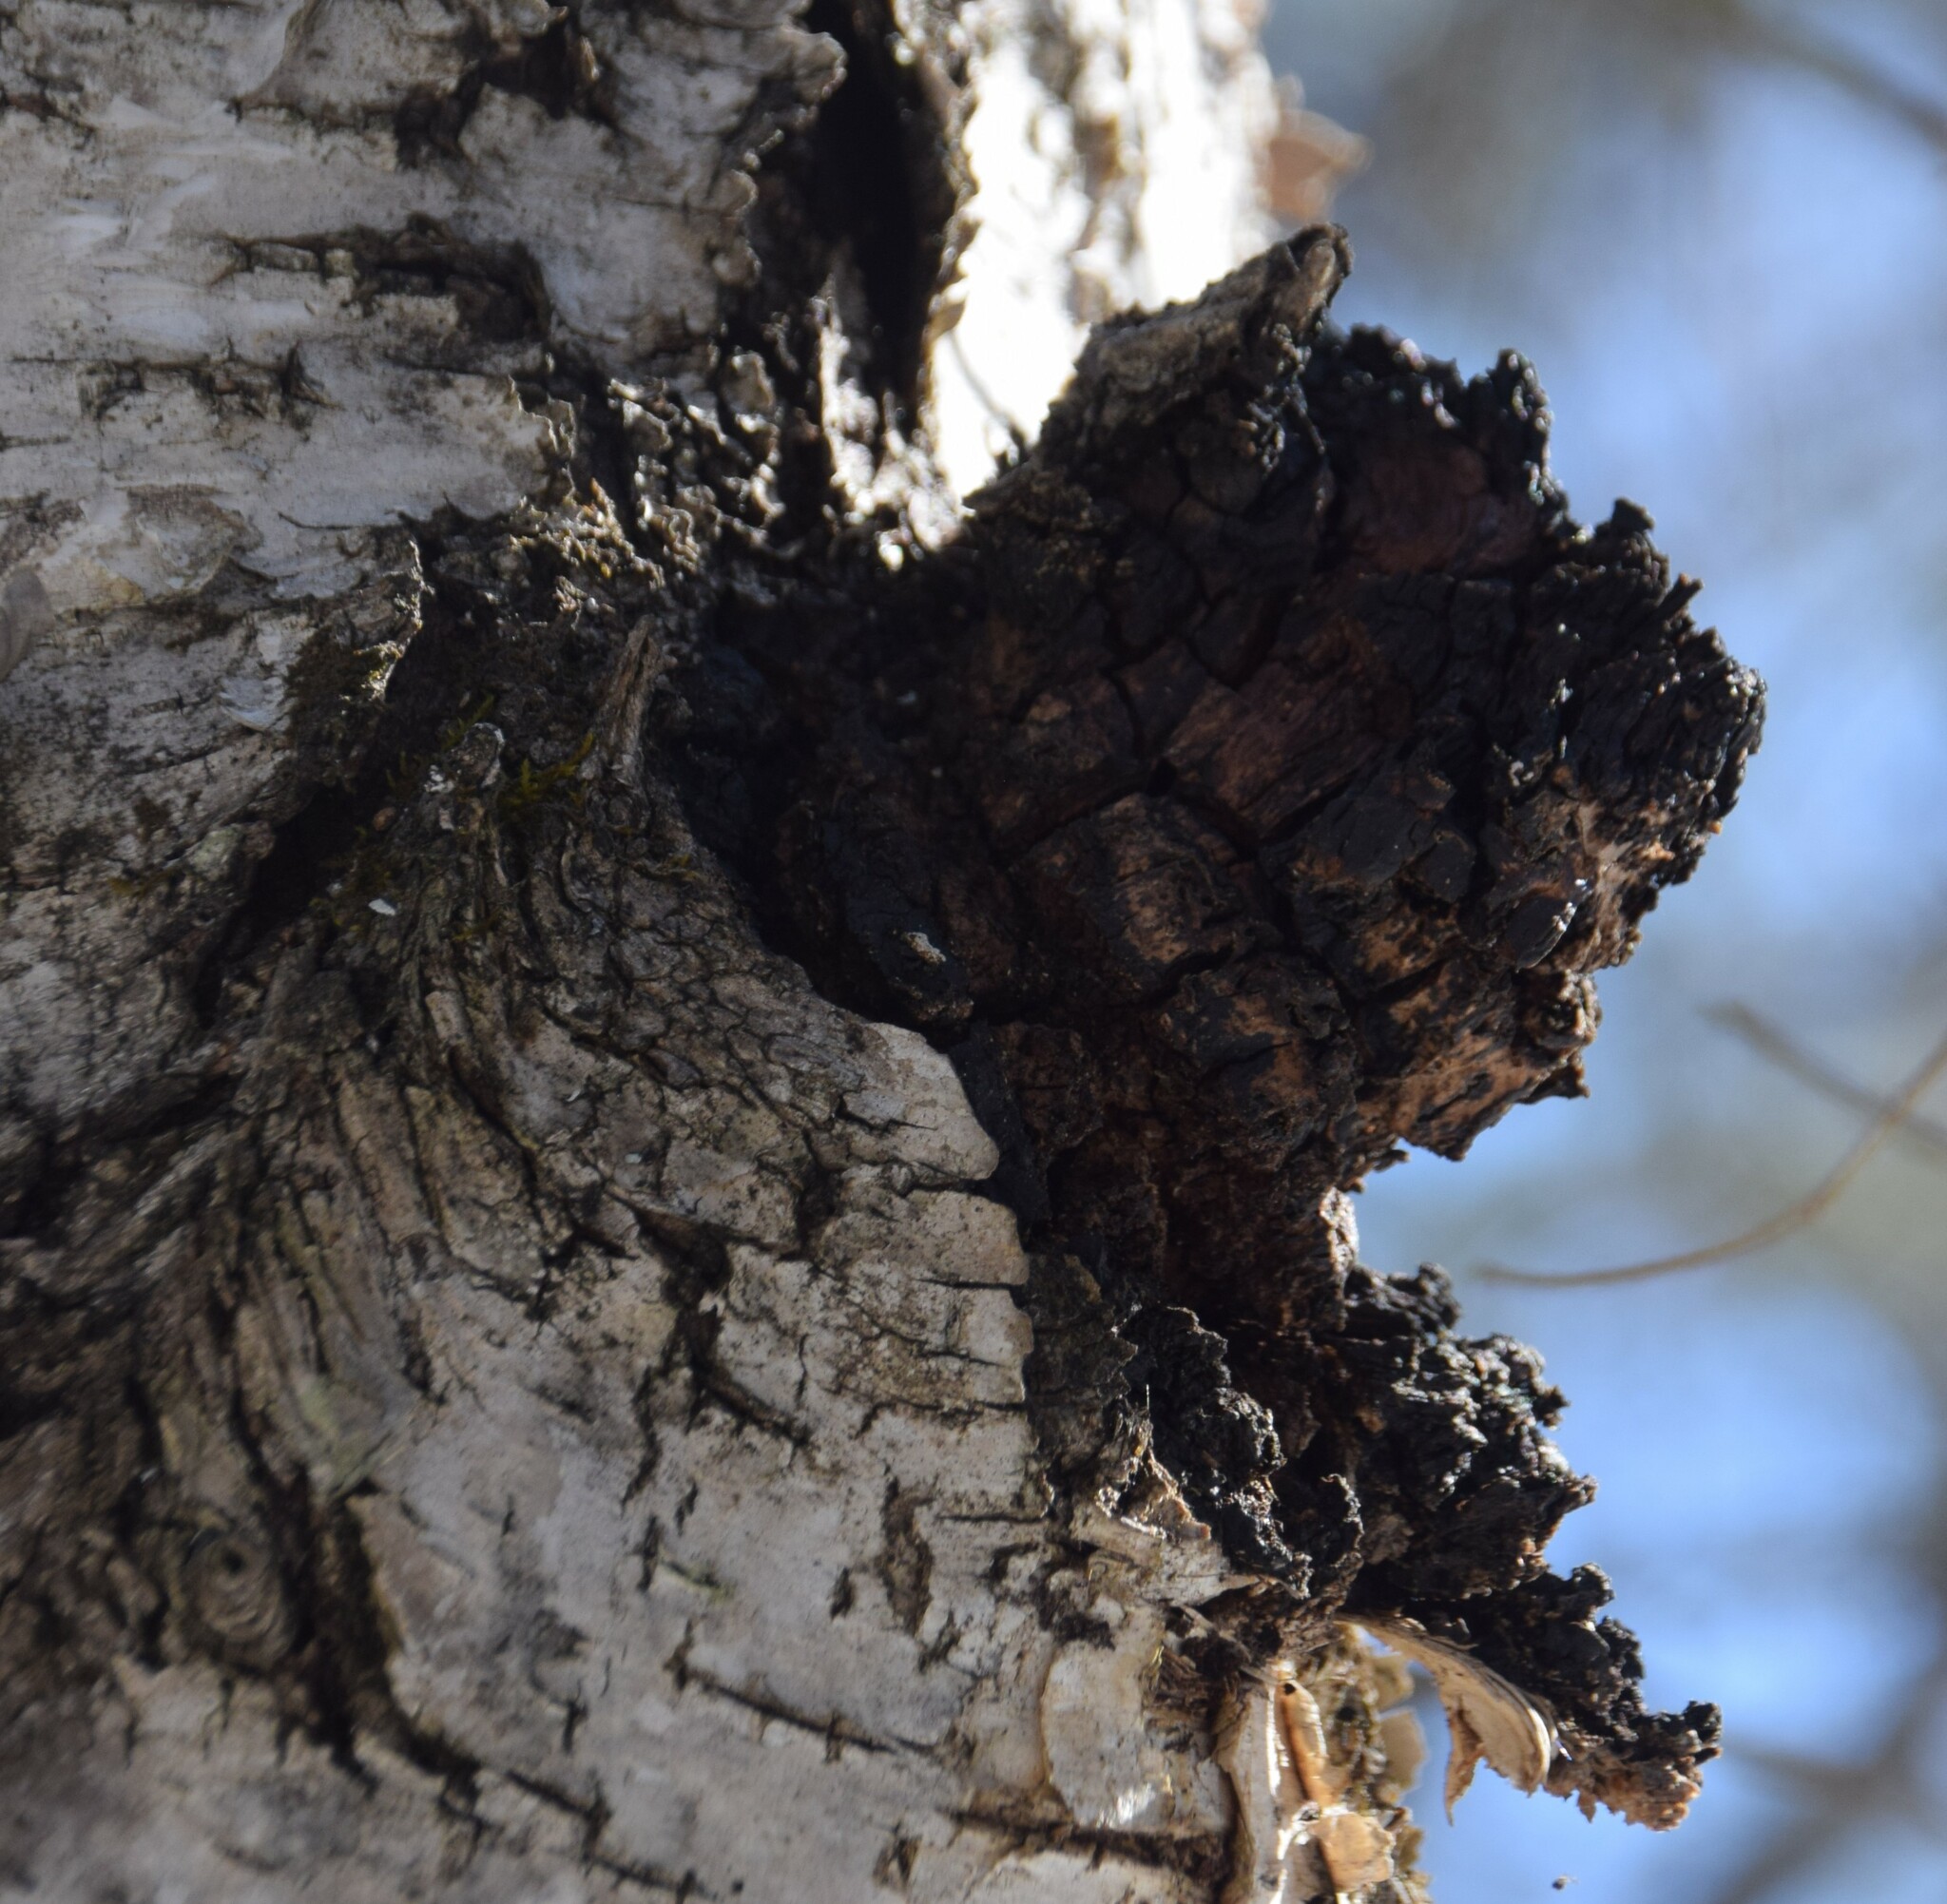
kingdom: Fungi
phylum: Basidiomycota
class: Agaricomycetes
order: Hymenochaetales
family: Hymenochaetaceae
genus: Inonotus
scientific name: Inonotus obliquus
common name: Chaga
